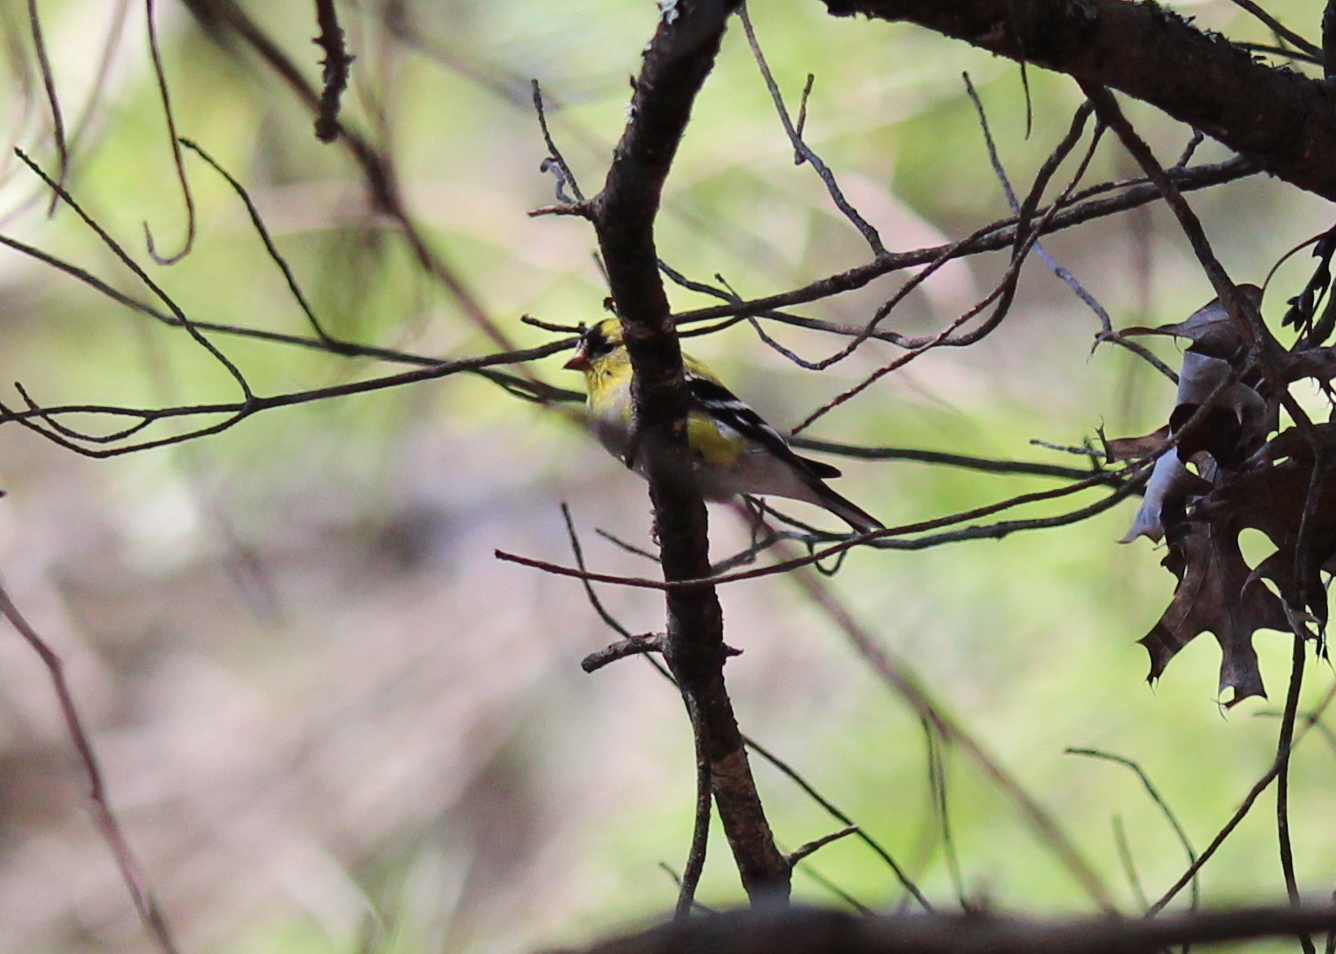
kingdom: Animalia
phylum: Chordata
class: Aves
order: Passeriformes
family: Fringillidae
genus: Spinus
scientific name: Spinus tristis
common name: American goldfinch
